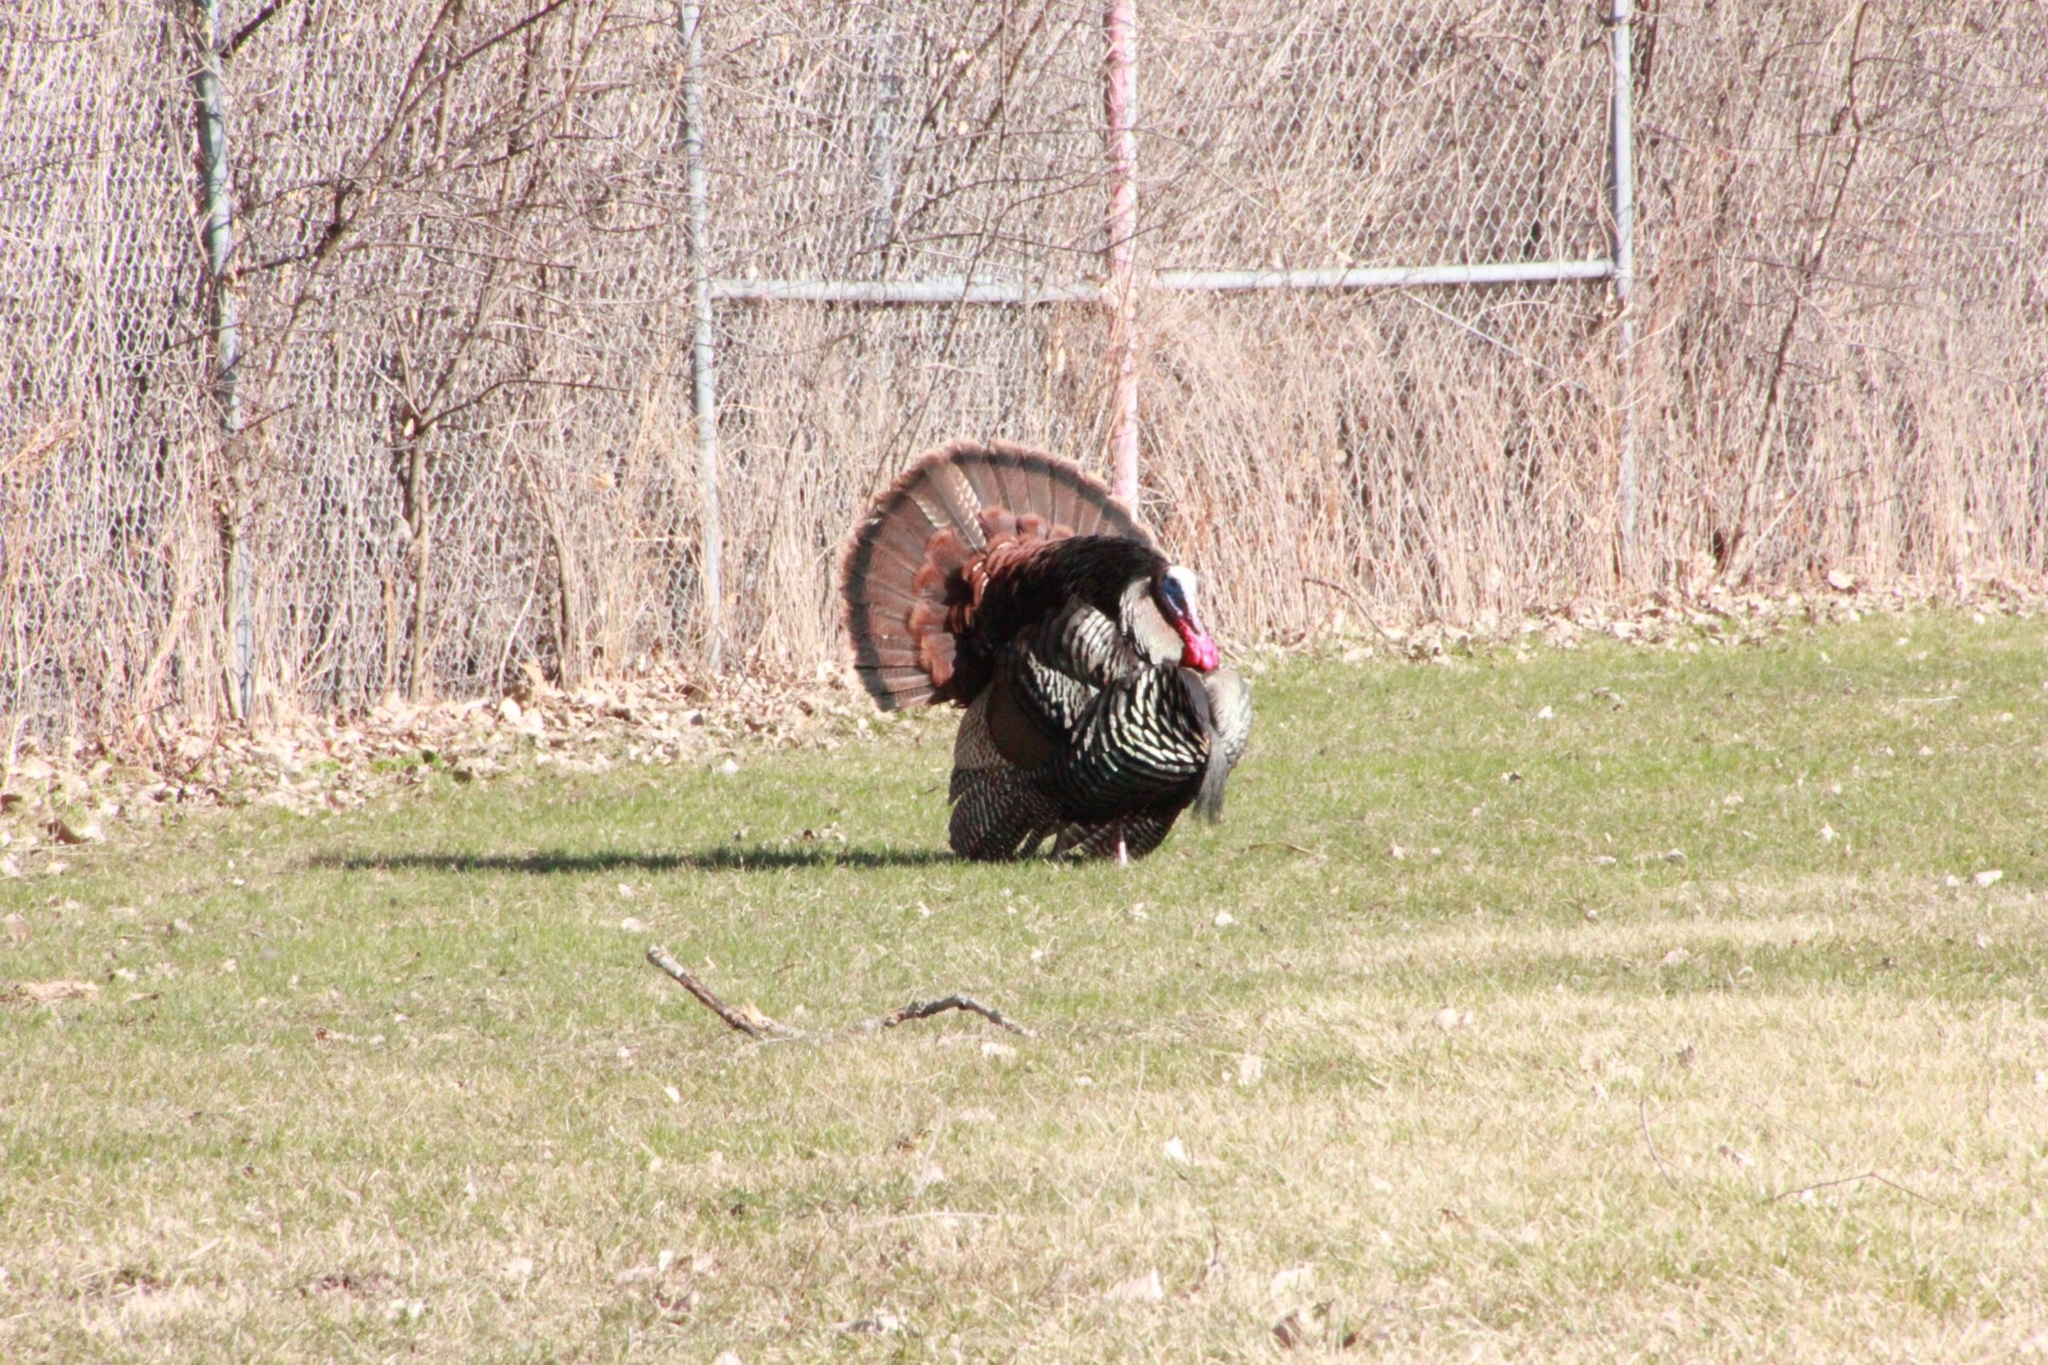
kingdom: Animalia
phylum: Chordata
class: Aves
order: Galliformes
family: Phasianidae
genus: Meleagris
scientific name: Meleagris gallopavo
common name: Wild turkey
